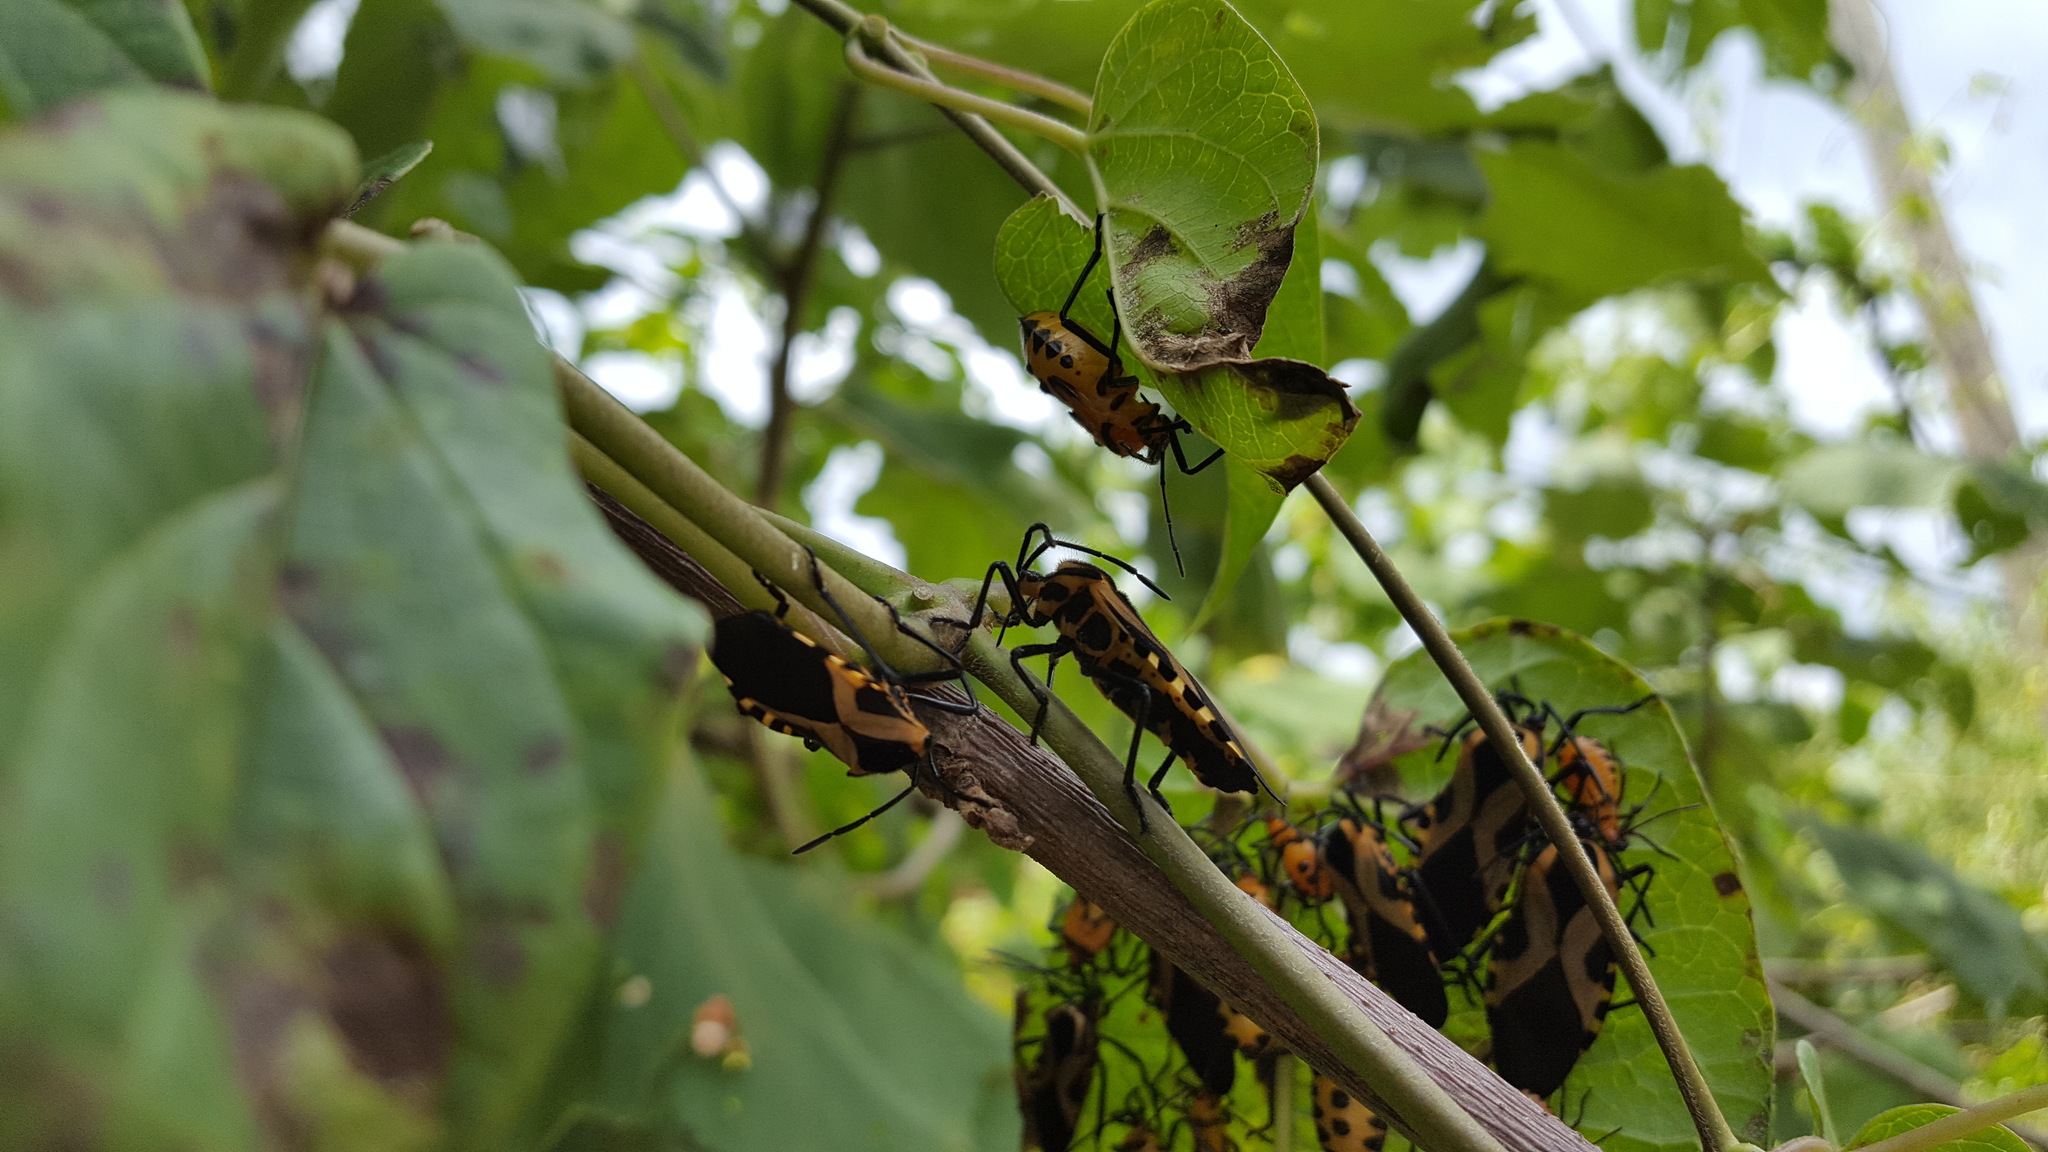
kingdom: Animalia
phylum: Arthropoda
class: Insecta
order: Hemiptera
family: Coreidae
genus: Sephina
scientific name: Sephina vinula
